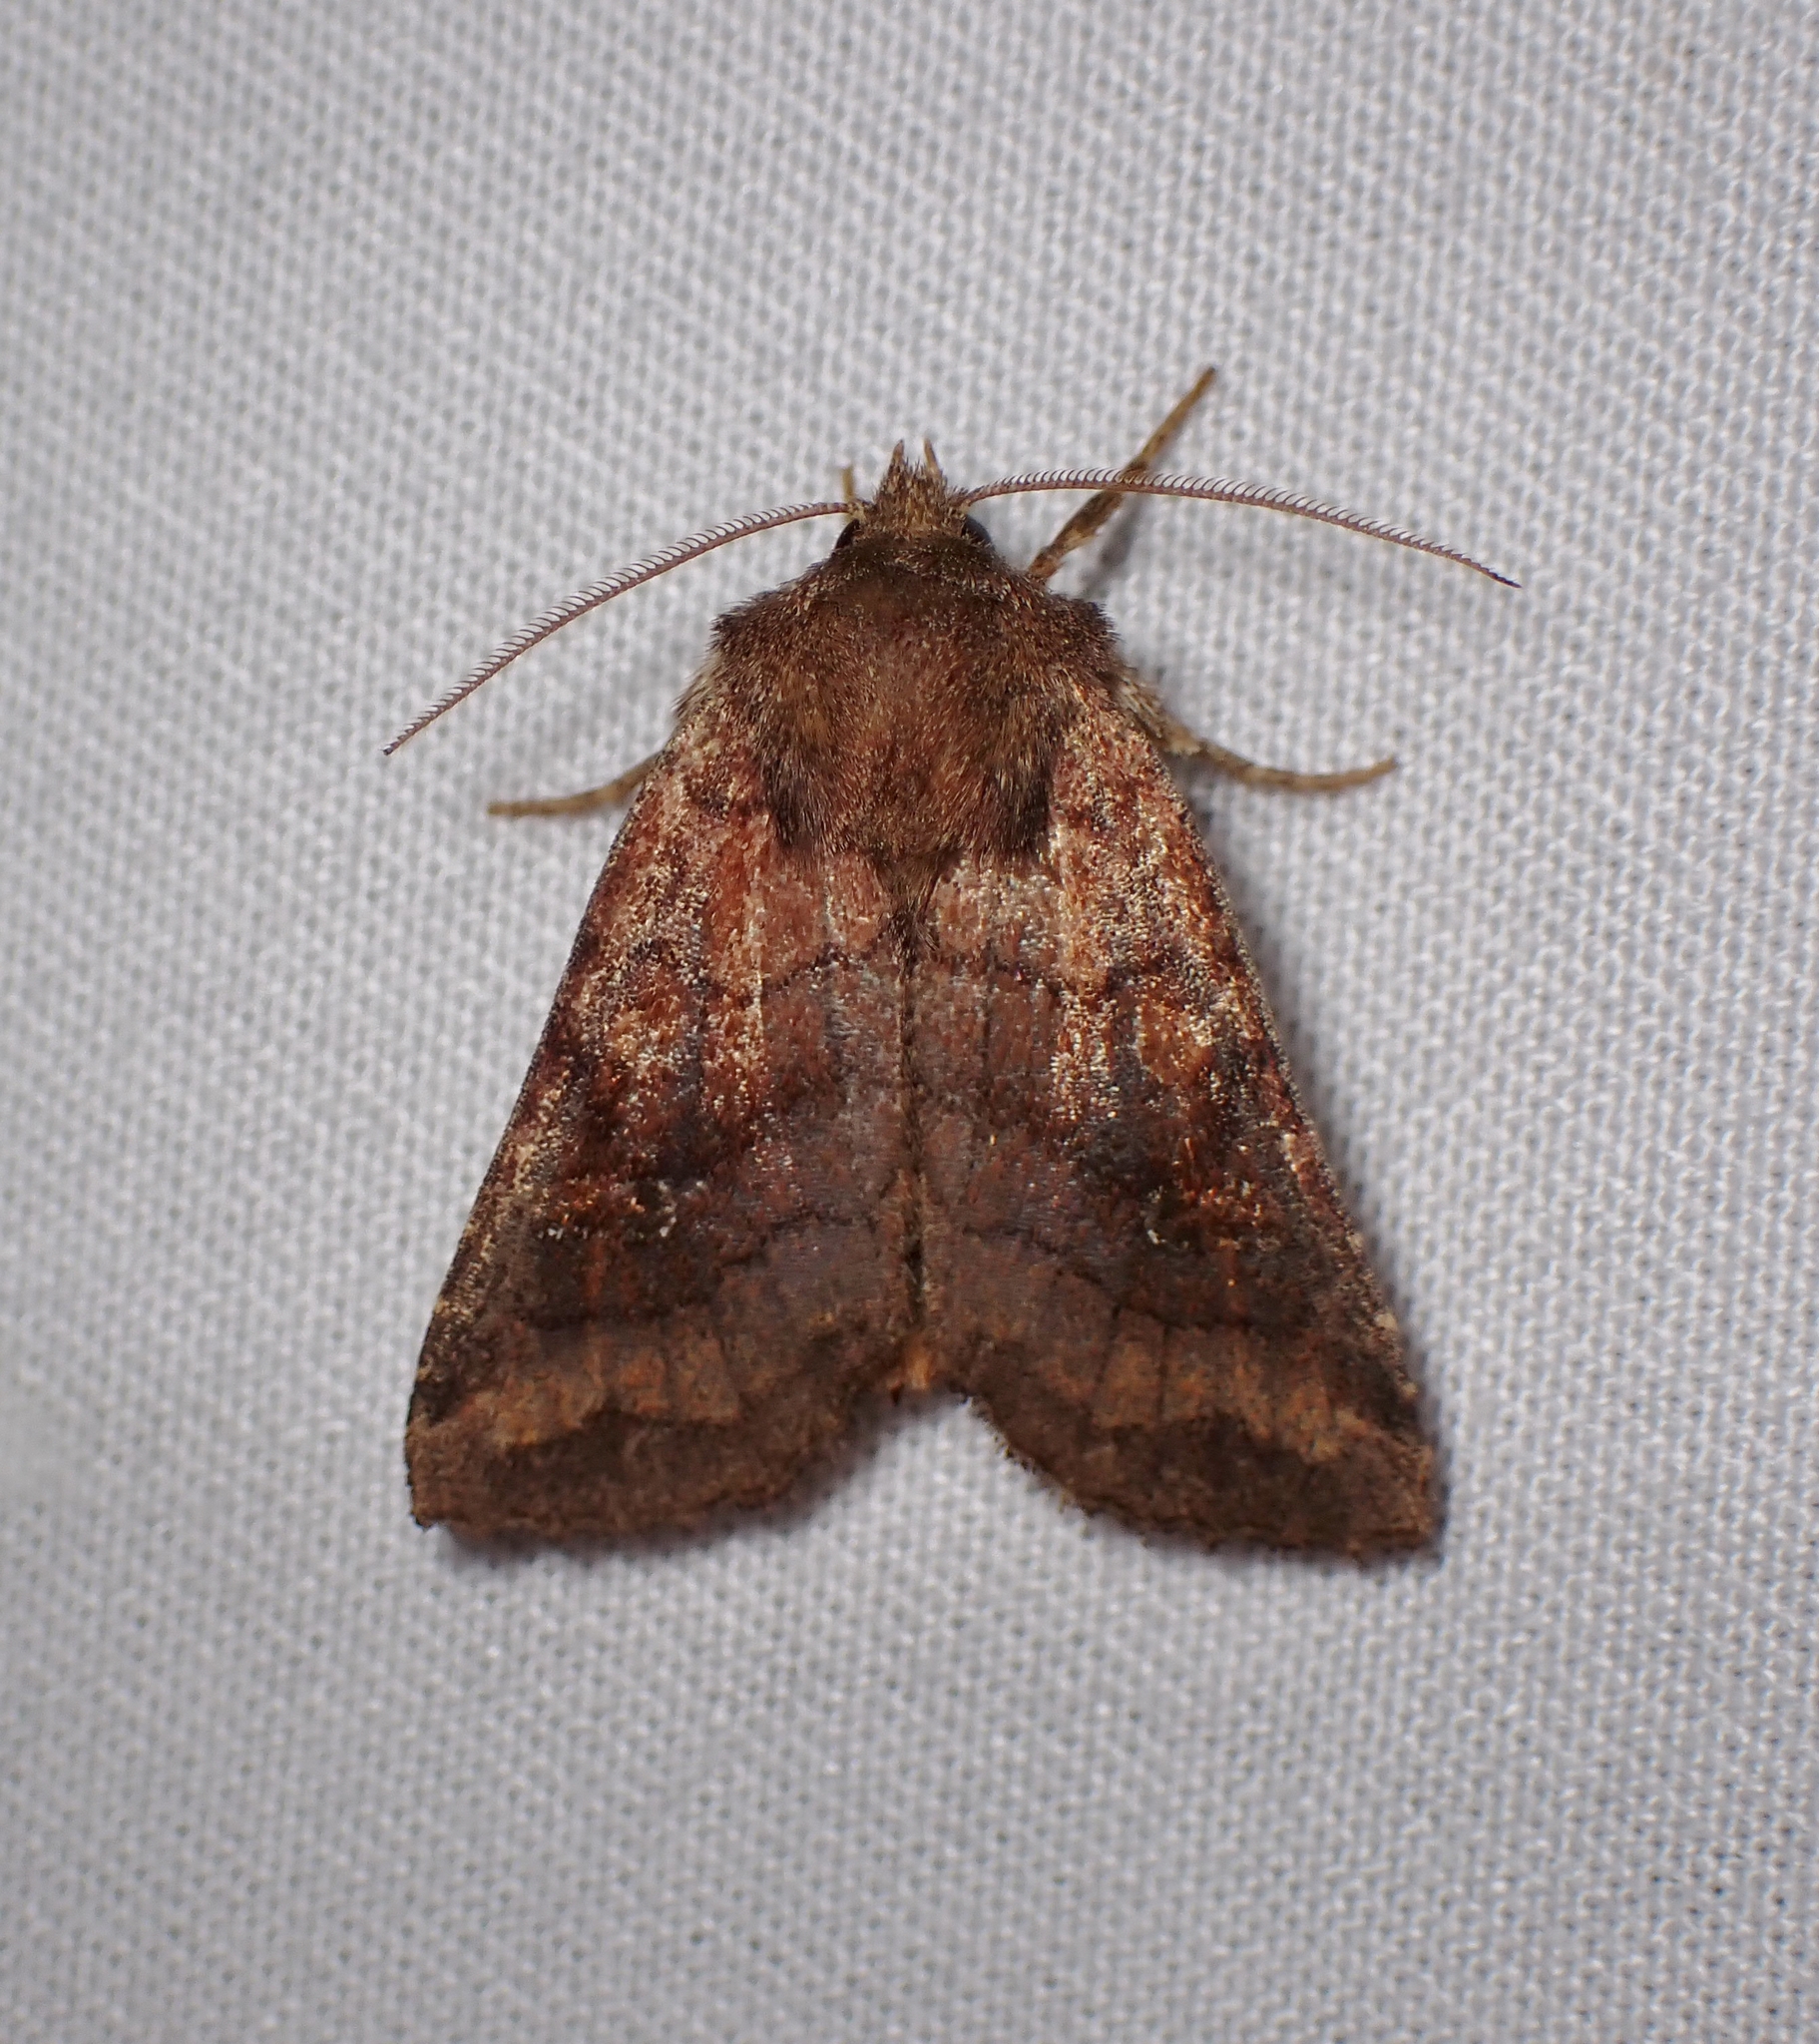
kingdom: Animalia
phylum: Arthropoda
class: Insecta
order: Lepidoptera
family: Noctuidae
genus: Tricholita
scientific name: Tricholita signata
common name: Signate quaker
